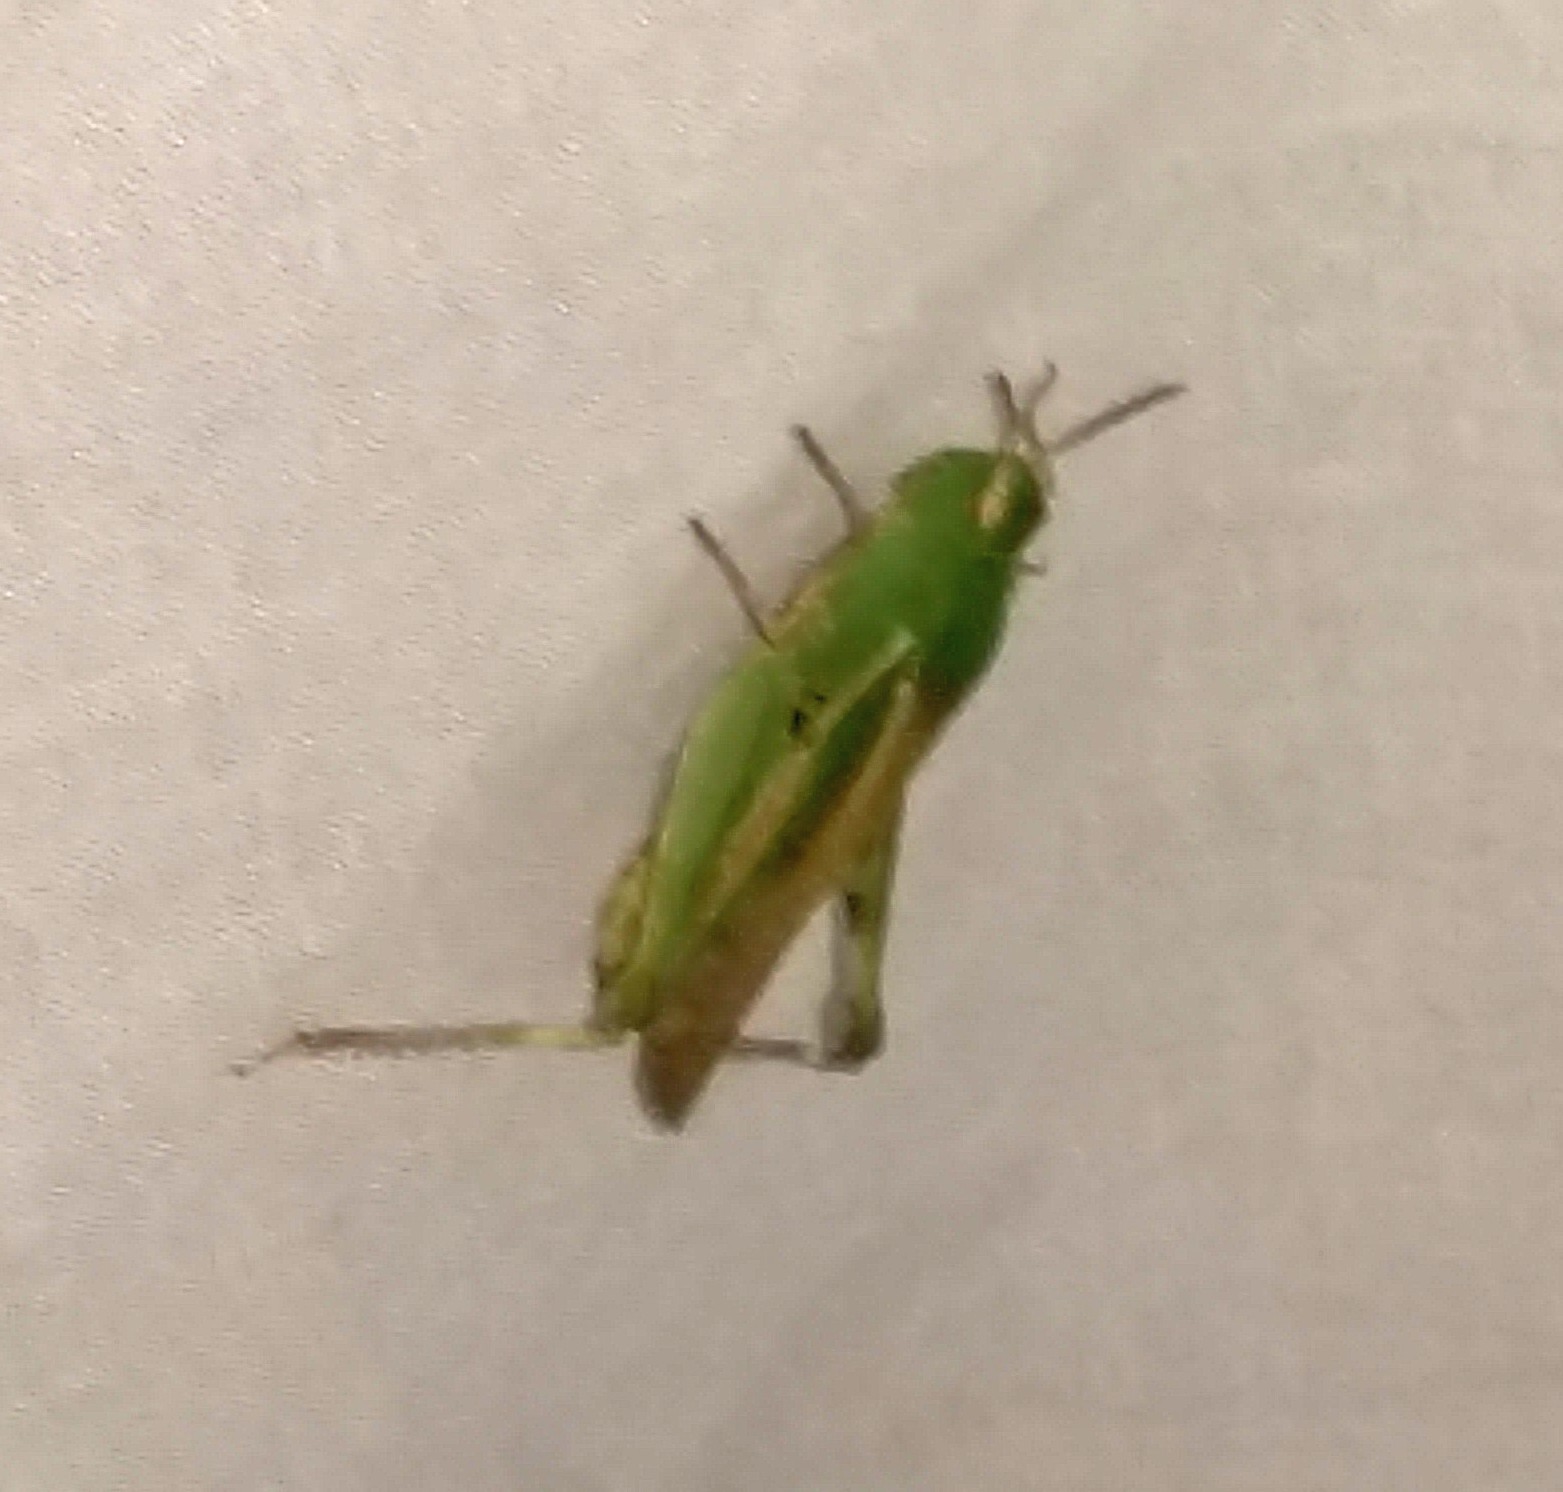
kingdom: Animalia
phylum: Arthropoda
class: Insecta
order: Orthoptera
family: Acrididae
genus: Chortophaga
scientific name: Chortophaga viridifasciata
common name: Green-striped grasshopper
